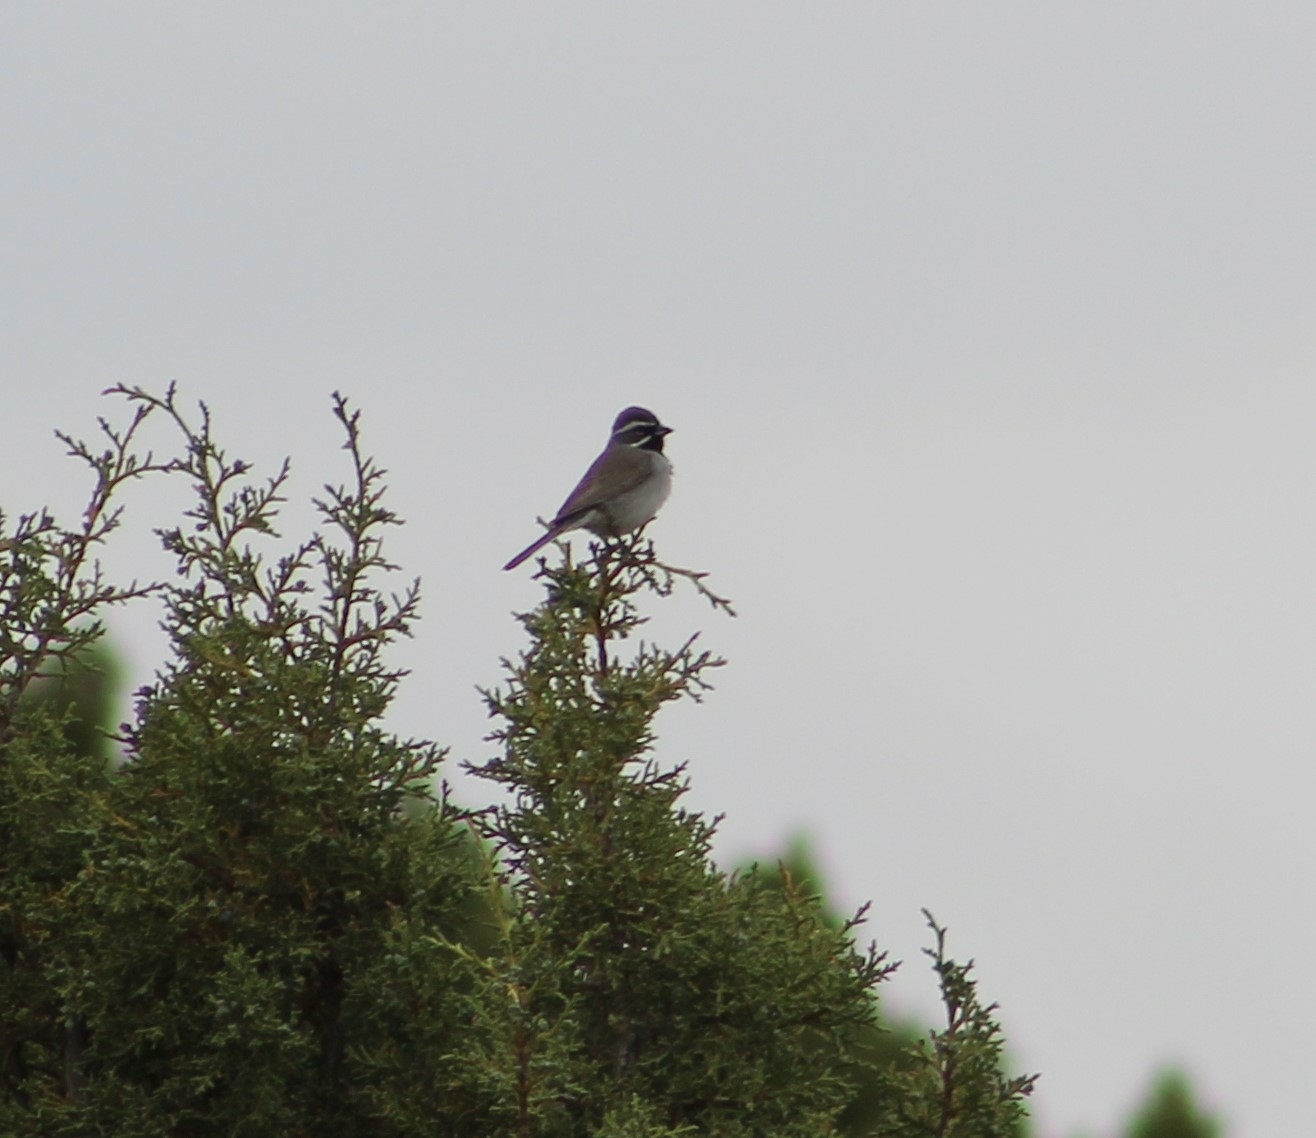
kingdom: Animalia
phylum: Chordata
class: Aves
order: Passeriformes
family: Passerellidae
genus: Amphispiza
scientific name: Amphispiza bilineata
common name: Black-throated sparrow
